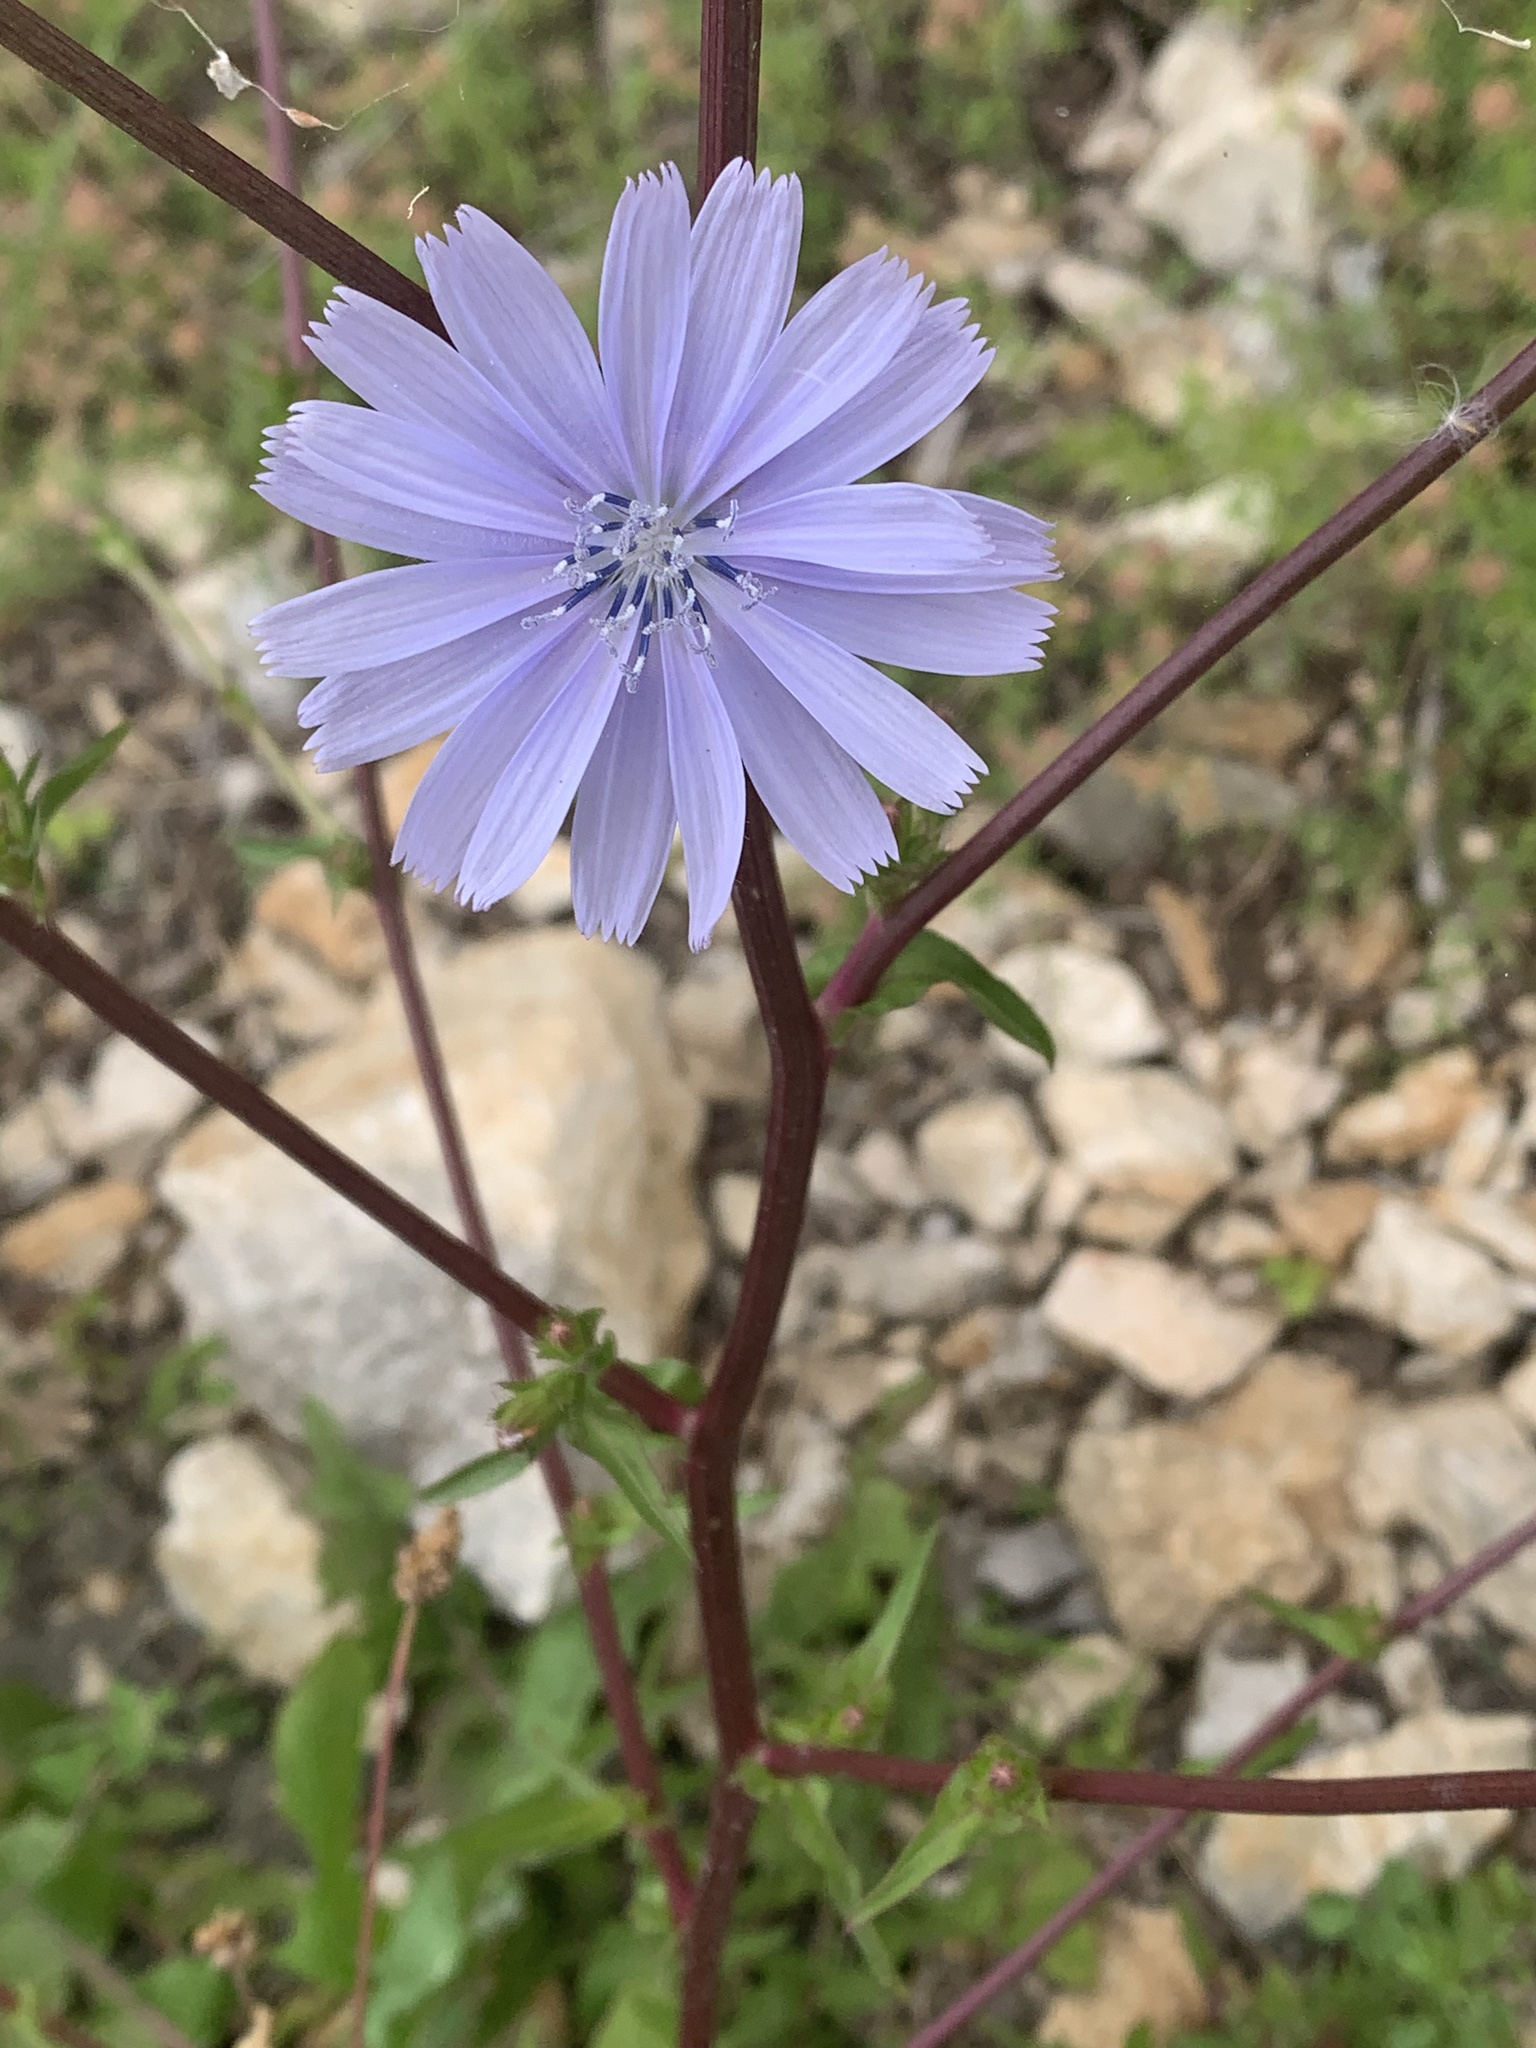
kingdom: Plantae
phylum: Tracheophyta
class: Magnoliopsida
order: Asterales
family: Asteraceae
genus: Cichorium
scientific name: Cichorium intybus
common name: Chicory
